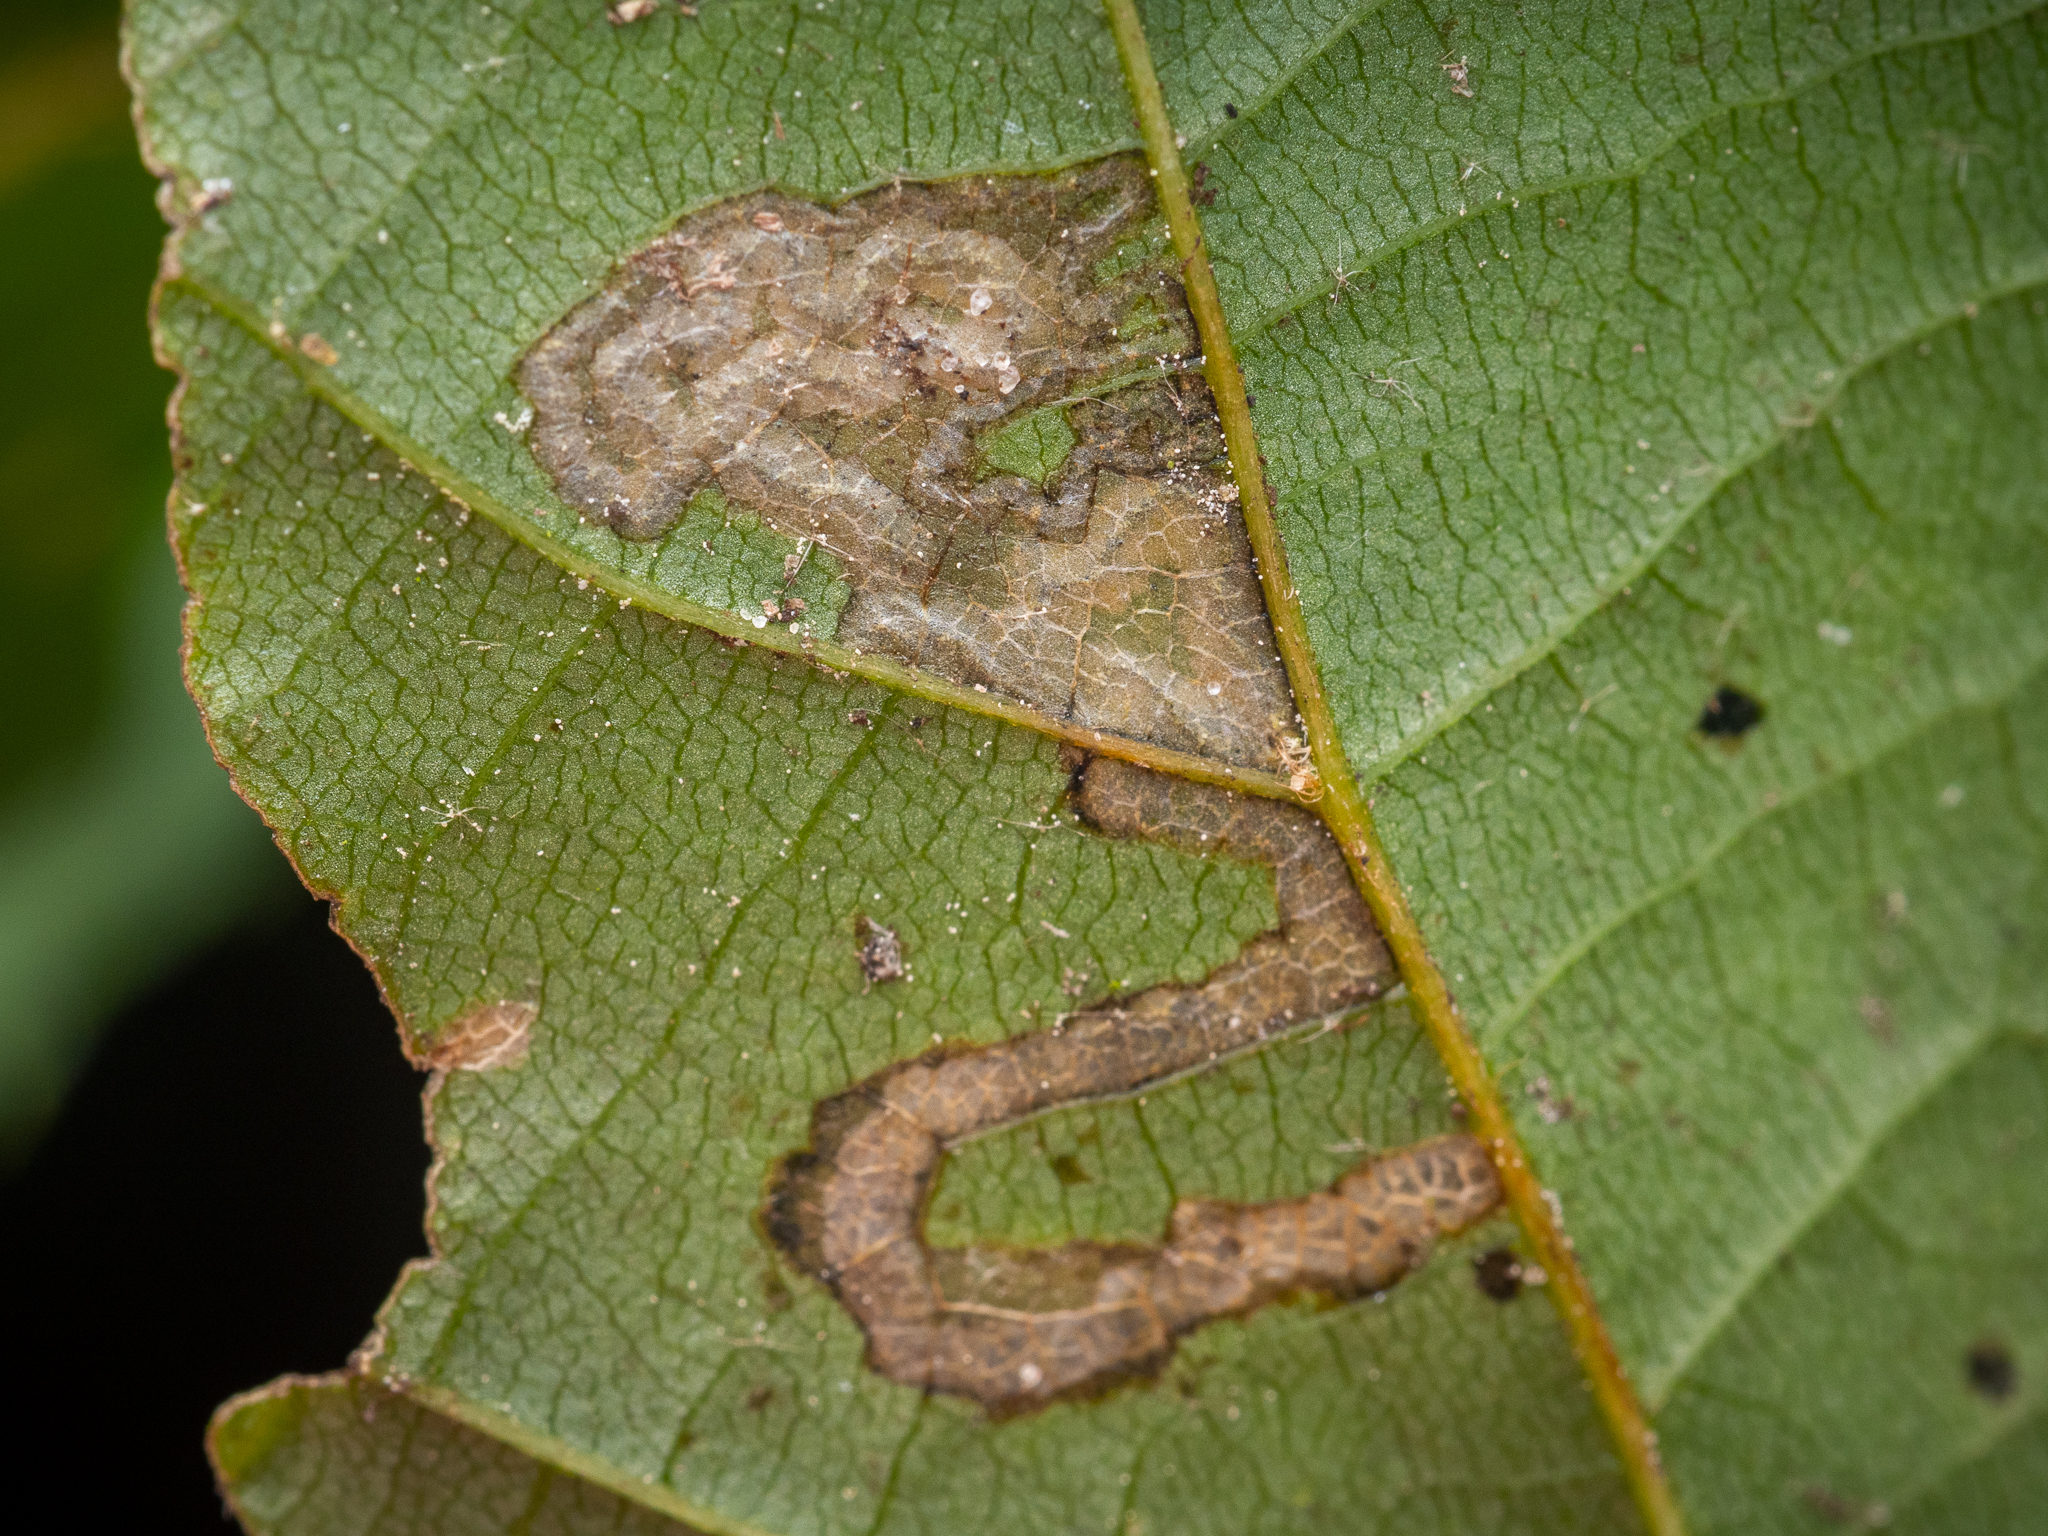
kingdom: Animalia
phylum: Arthropoda
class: Insecta
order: Lepidoptera
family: Nepticulidae
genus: Stigmella
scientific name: Stigmella tiliae
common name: Lime pigmy
